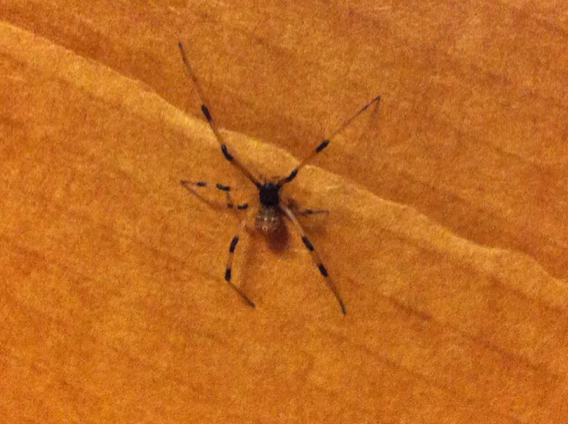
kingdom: Animalia
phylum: Arthropoda
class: Arachnida
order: Araneae
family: Theridiidae
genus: Latrodectus
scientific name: Latrodectus geometricus
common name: Brown widow spider
